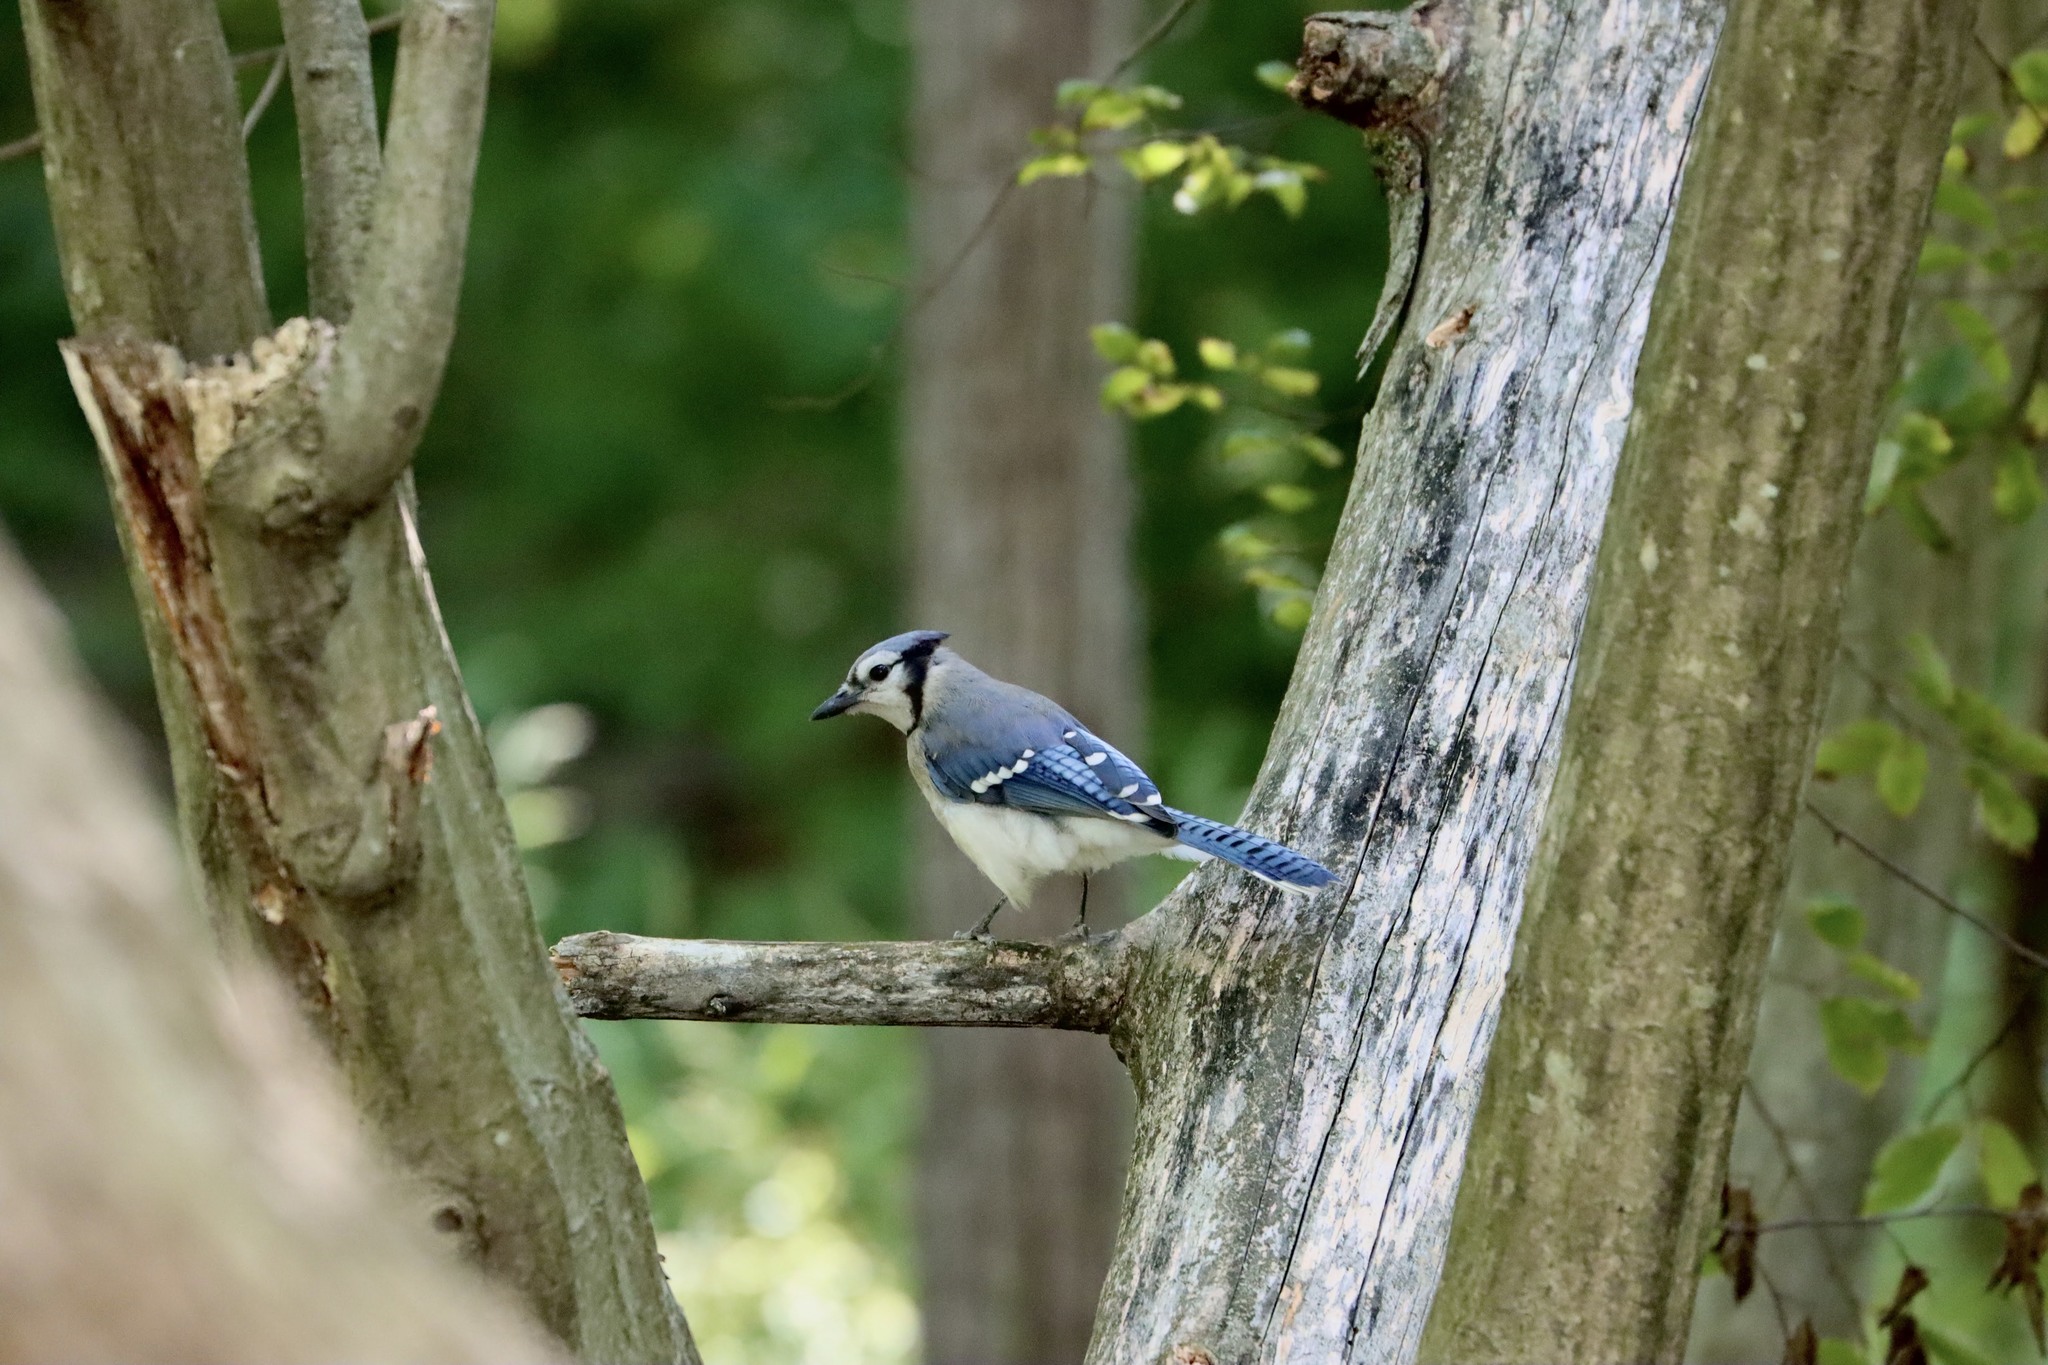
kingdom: Animalia
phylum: Chordata
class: Aves
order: Passeriformes
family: Corvidae
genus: Cyanocitta
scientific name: Cyanocitta cristata
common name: Blue jay
